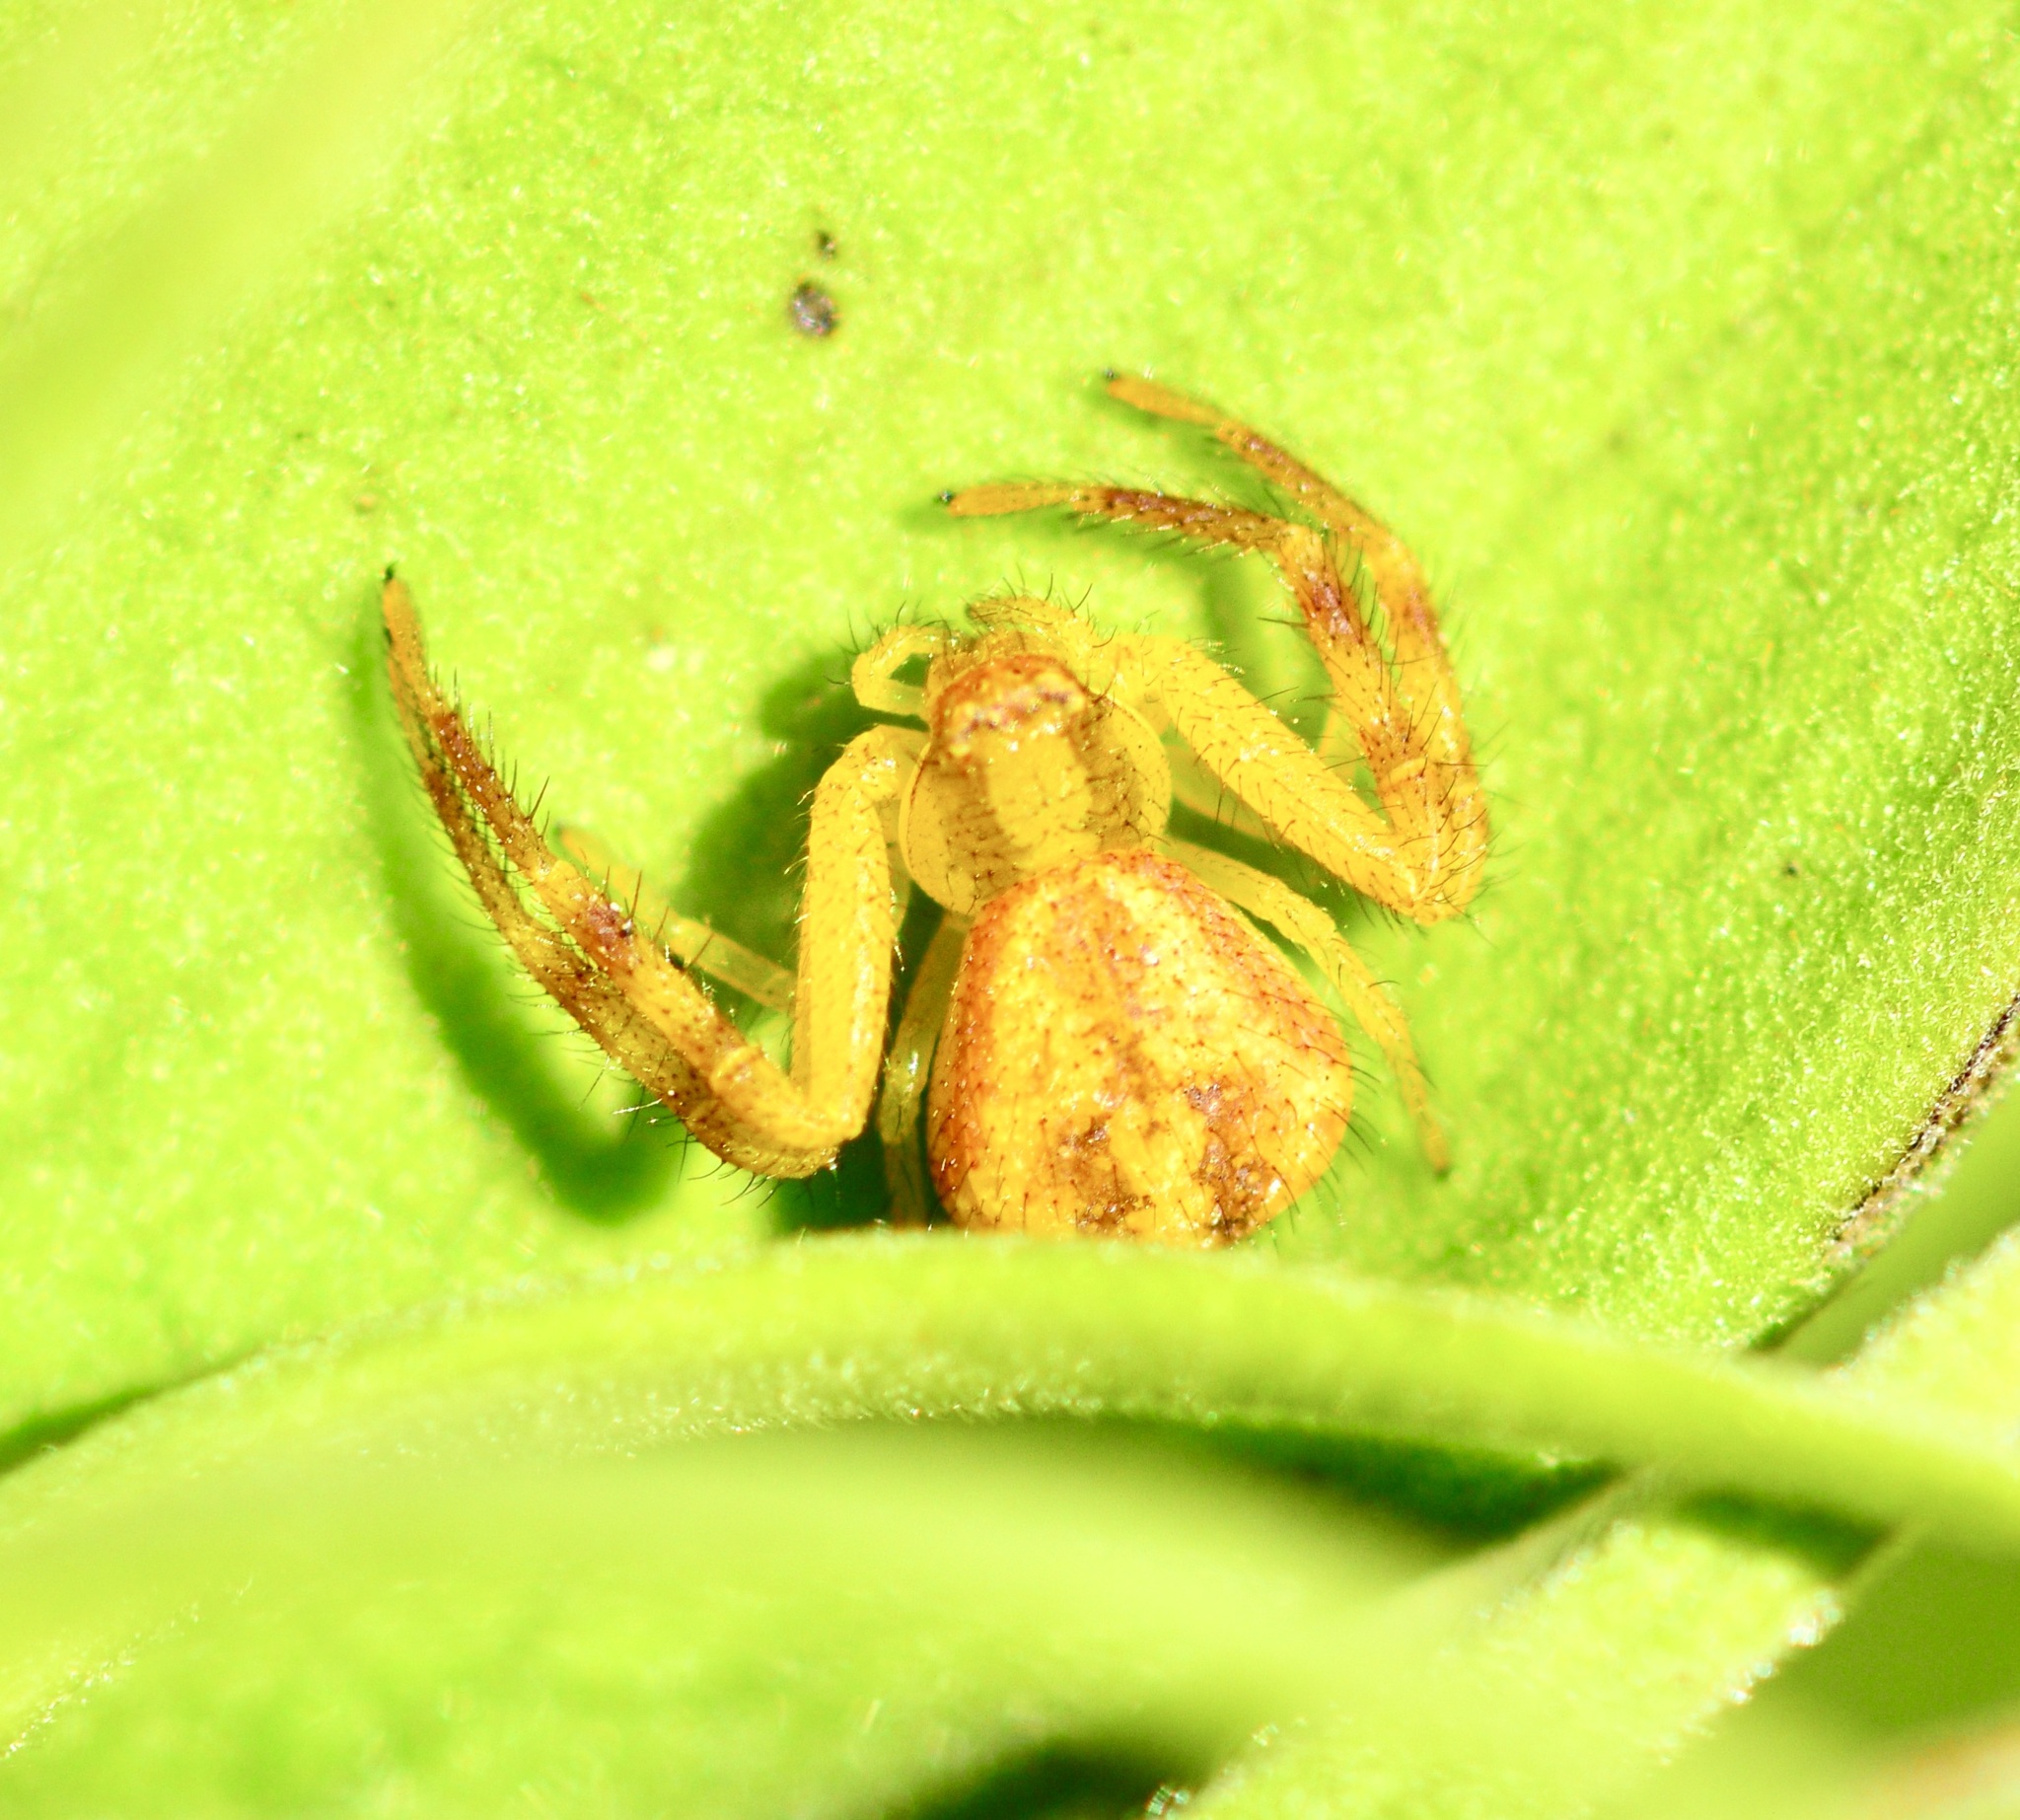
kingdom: Animalia
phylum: Arthropoda
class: Arachnida
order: Araneae
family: Thomisidae
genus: Mecaphesa
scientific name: Mecaphesa asperata
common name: Crab spiders
